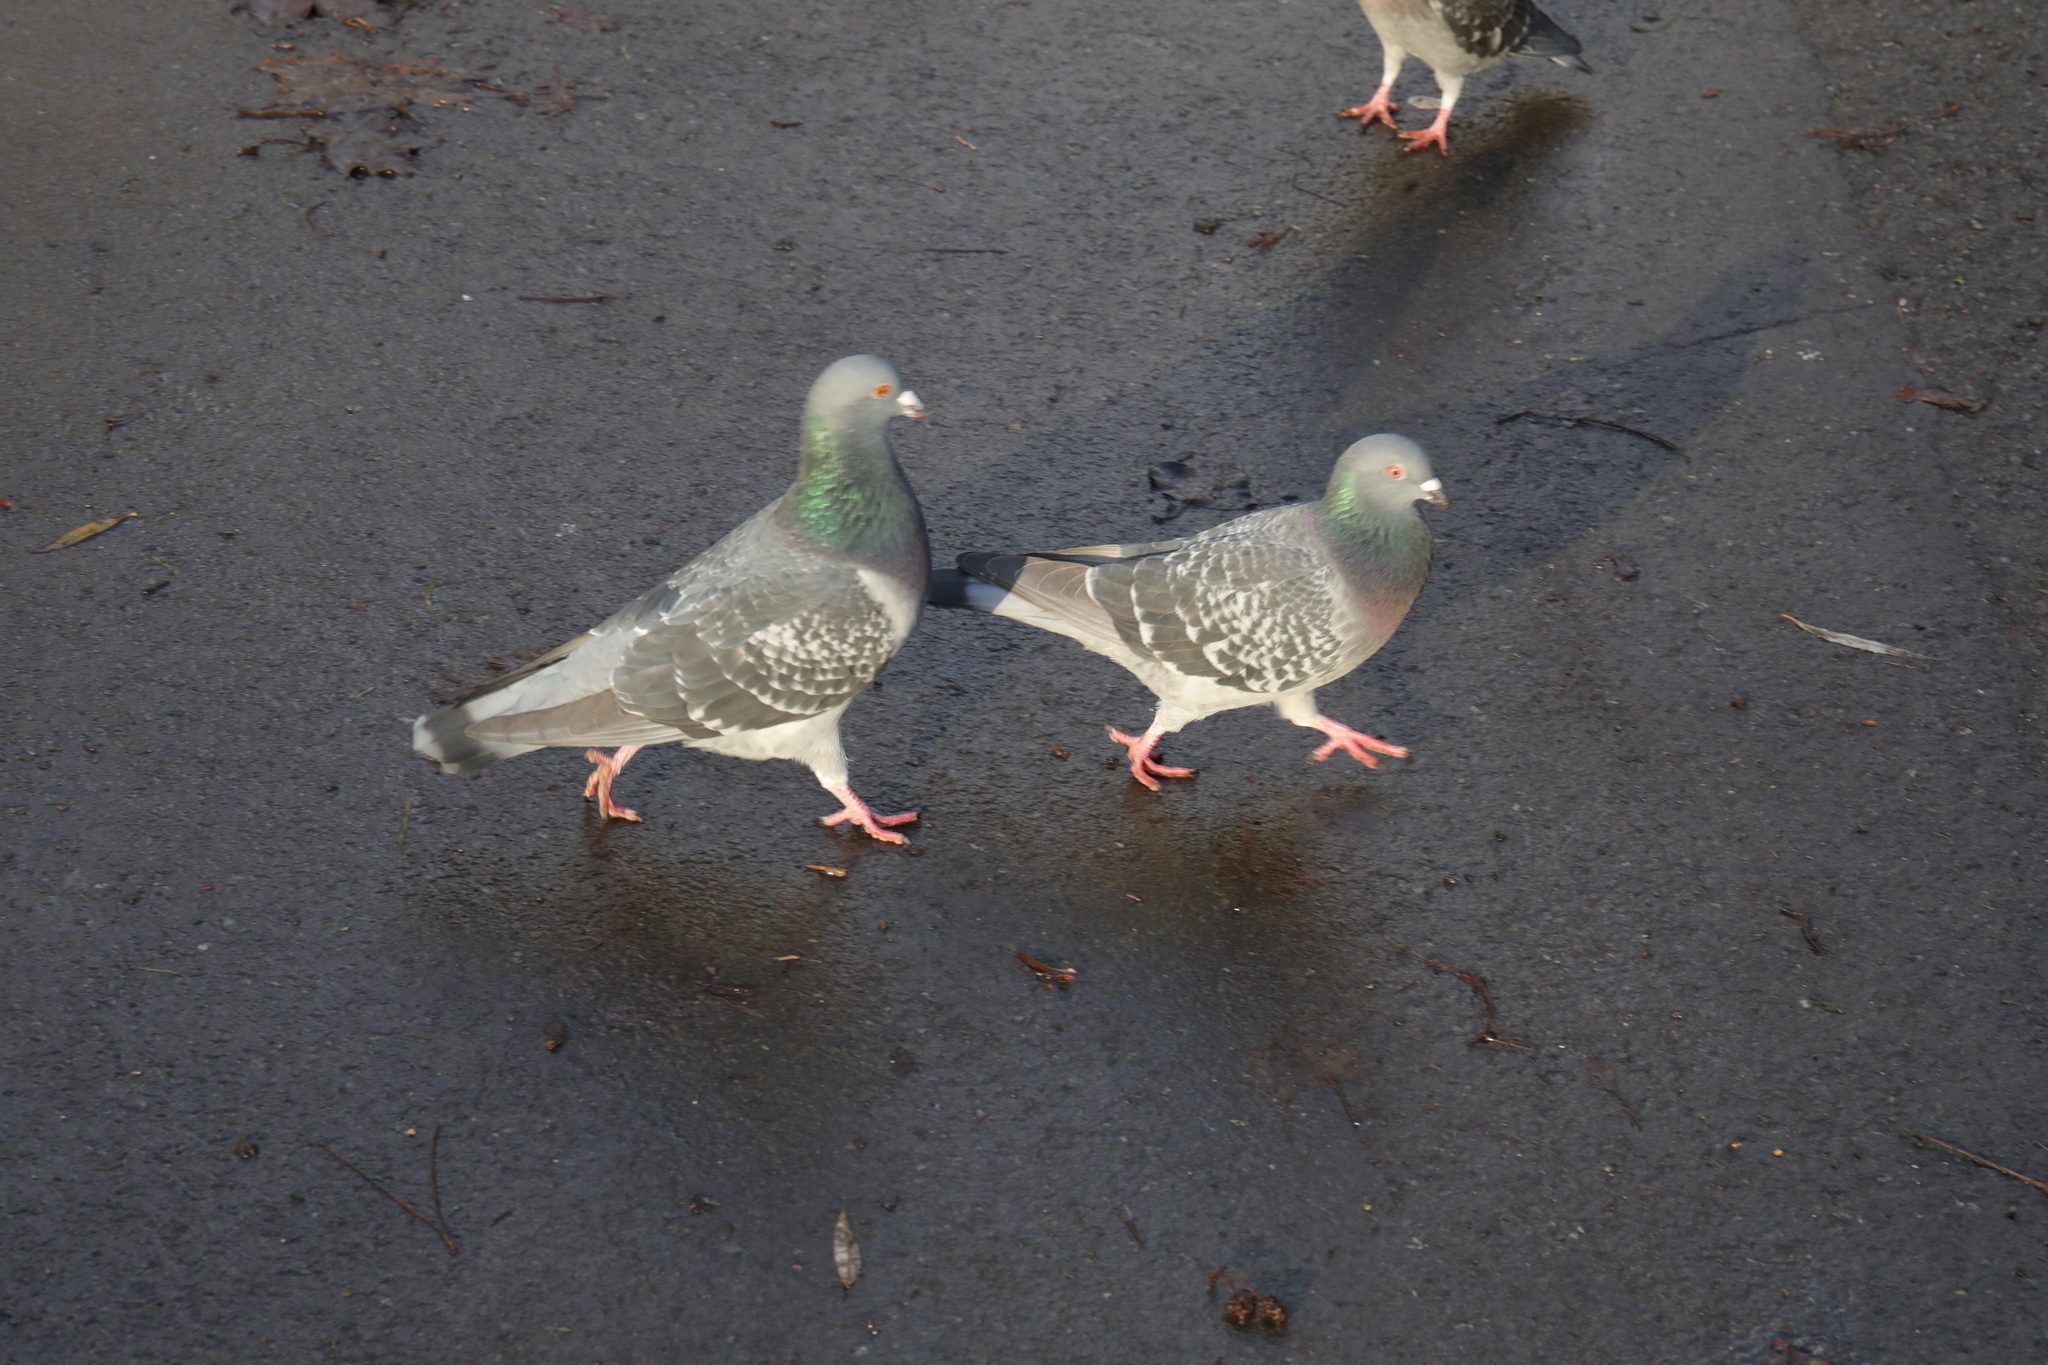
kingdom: Animalia
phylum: Chordata
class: Aves
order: Columbiformes
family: Columbidae
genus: Columba
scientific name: Columba livia
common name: Rock pigeon
